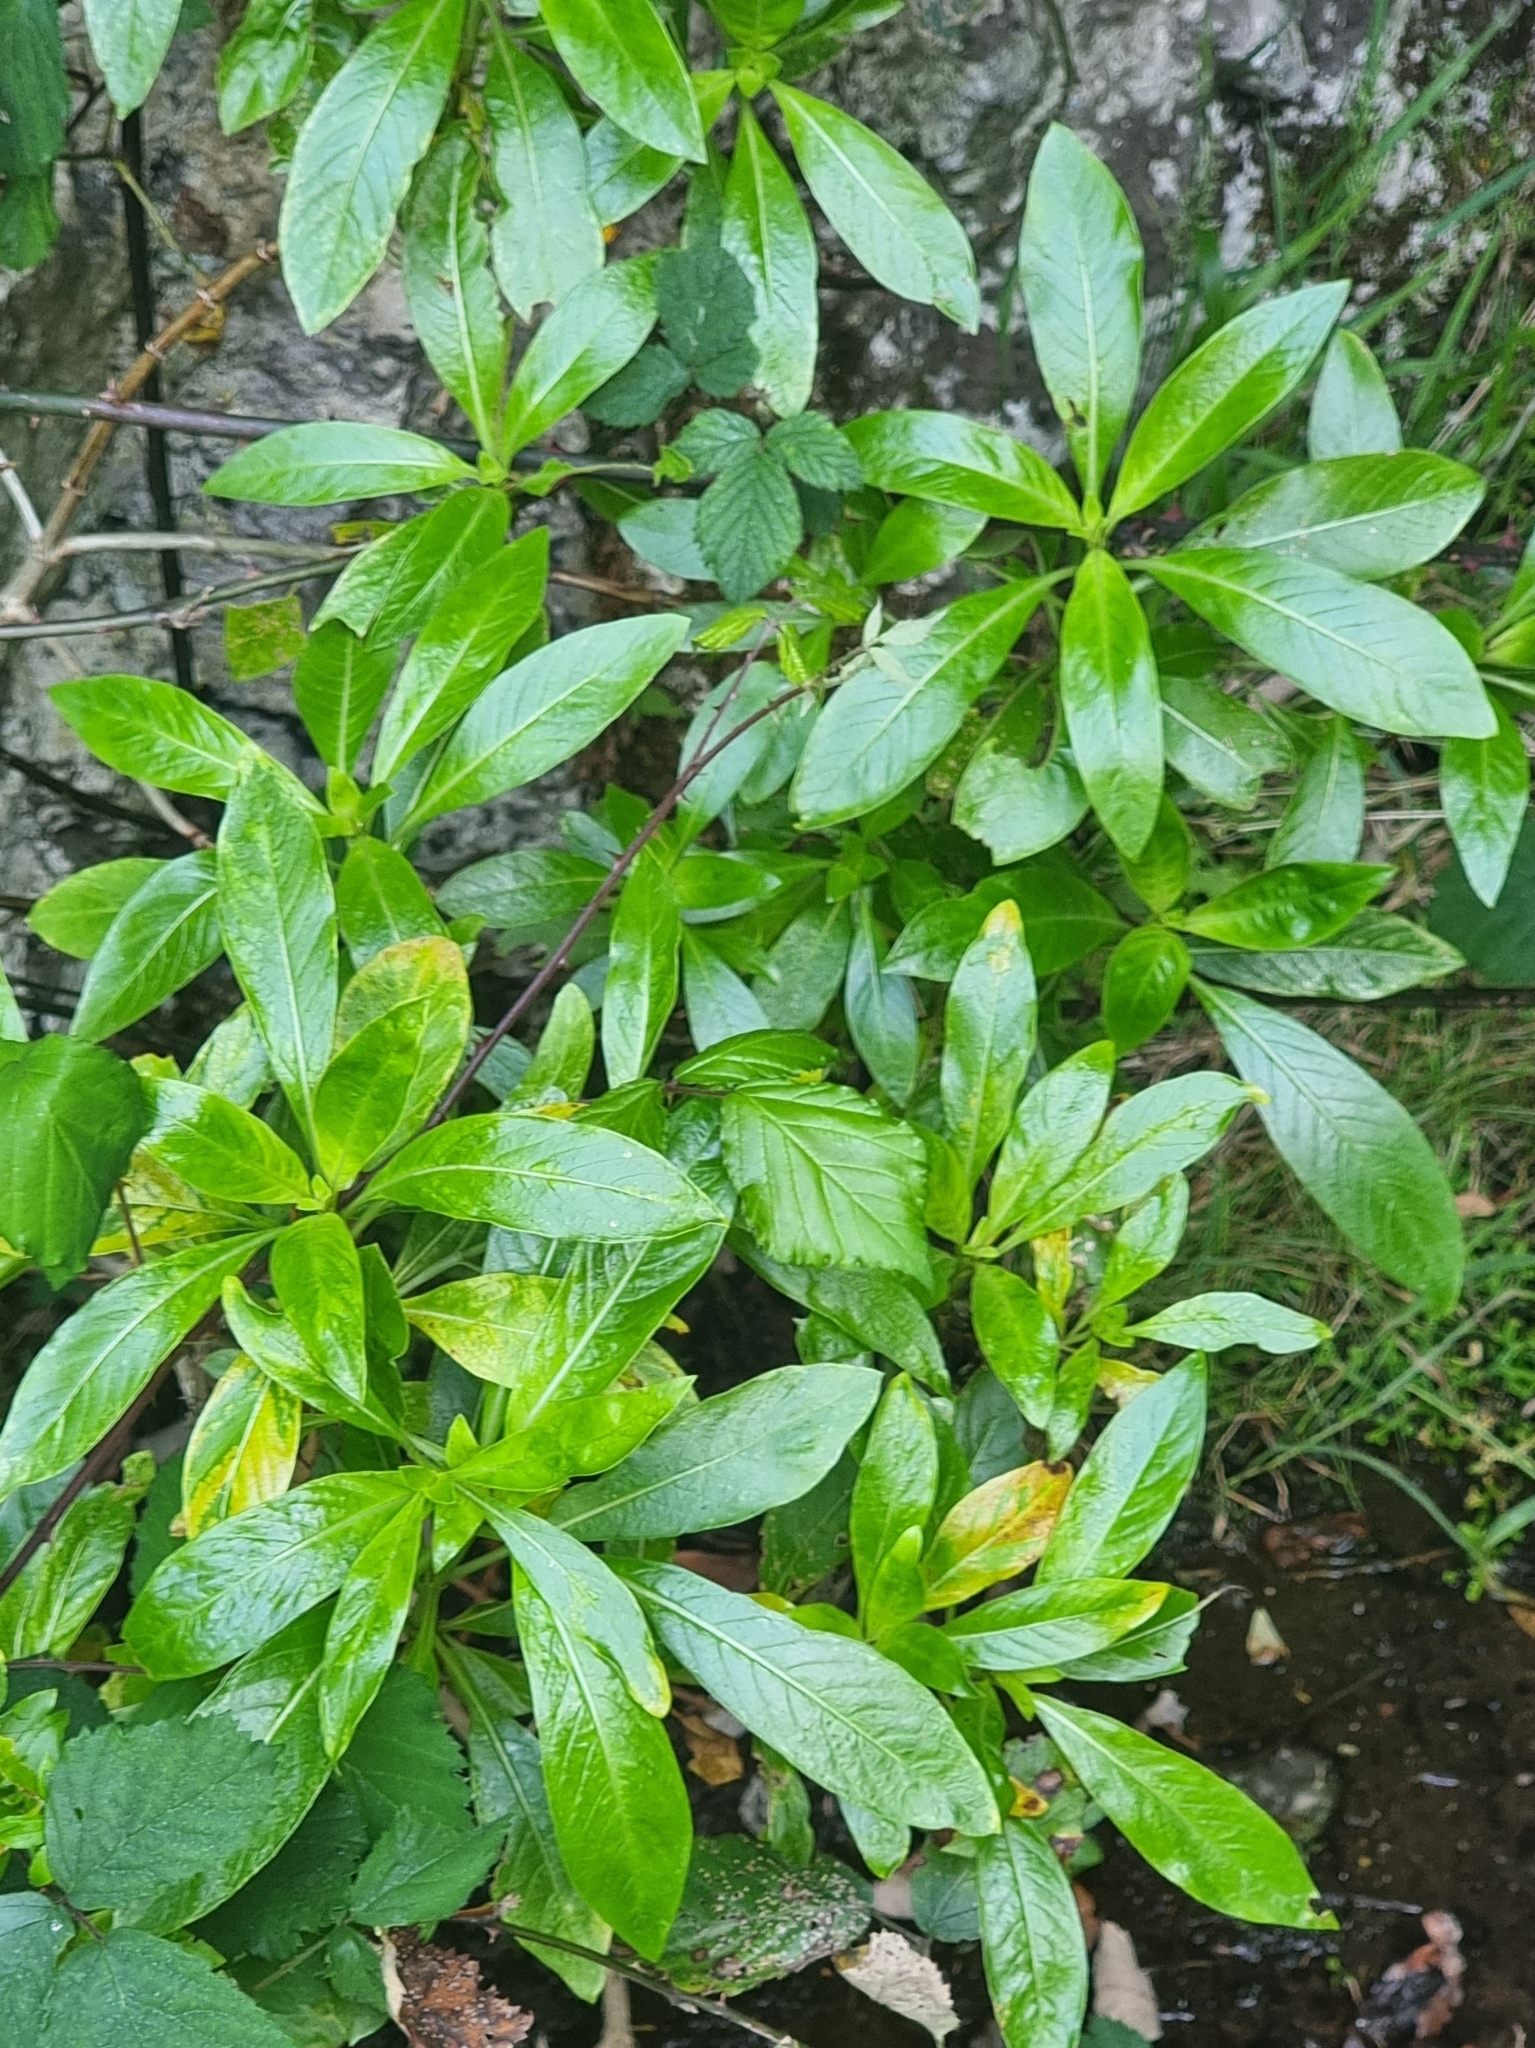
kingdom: Plantae
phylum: Tracheophyta
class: Magnoliopsida
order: Gentianales
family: Rubiaceae
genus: Phyllis
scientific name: Phyllis nobla
